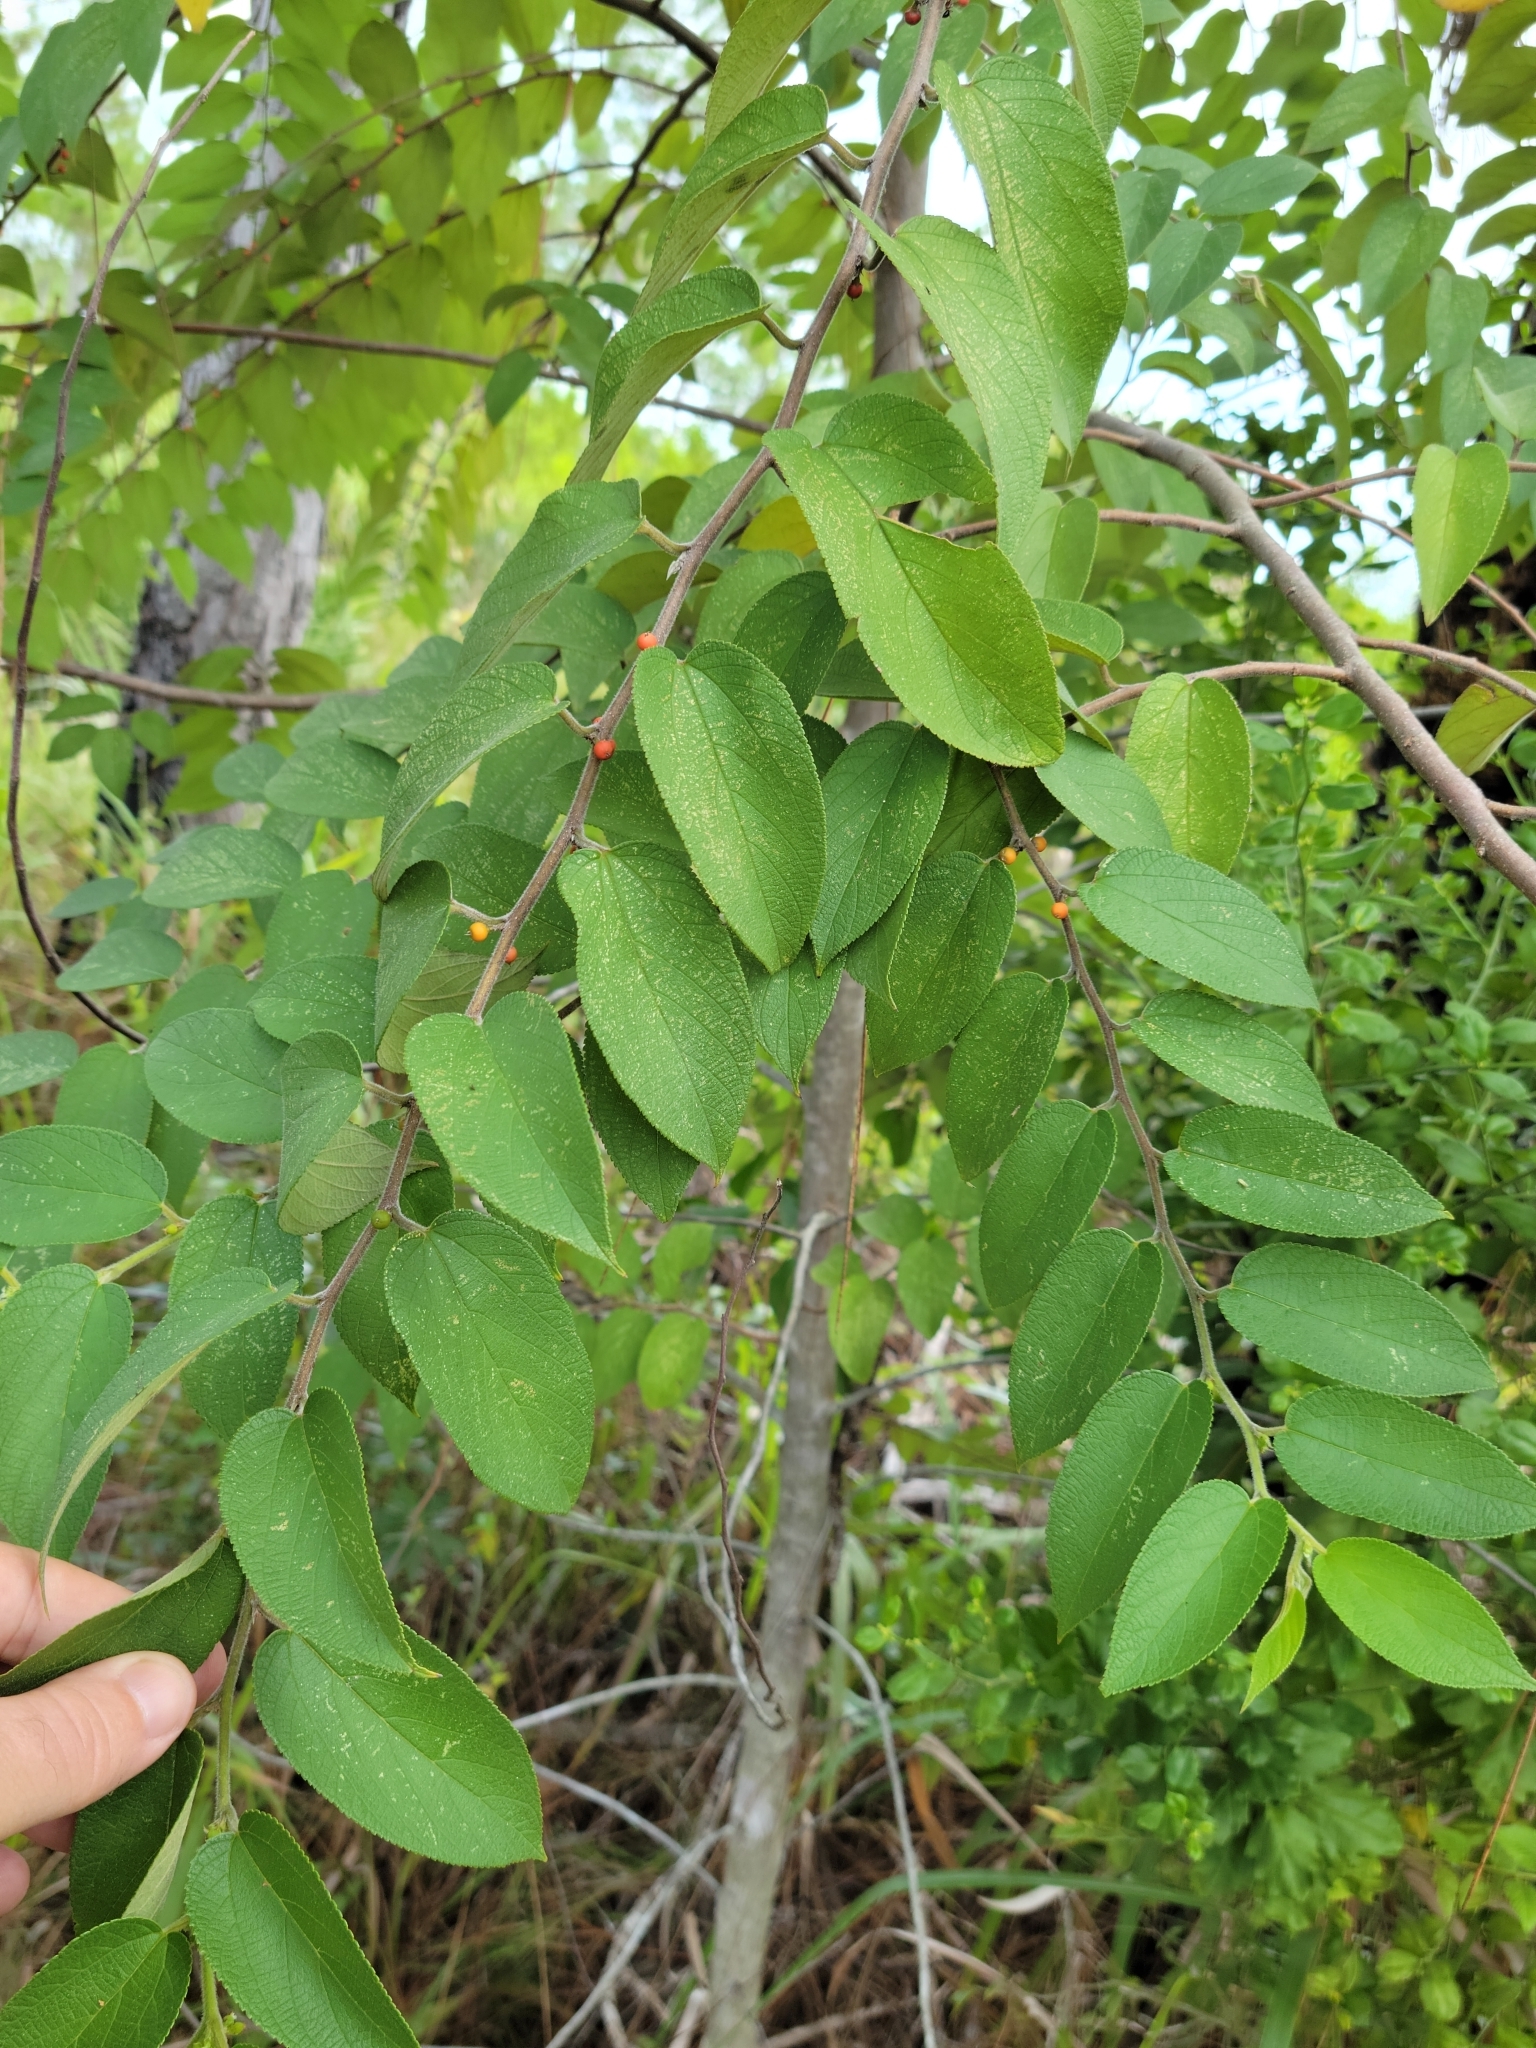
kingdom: Plantae
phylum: Tracheophyta
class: Magnoliopsida
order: Rosales
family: Cannabaceae
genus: Trema
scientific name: Trema micranthum
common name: Jamaican nettletree
